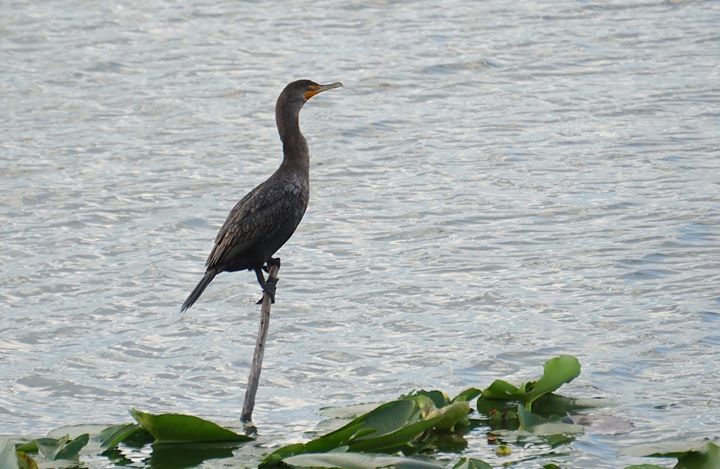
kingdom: Animalia
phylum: Chordata
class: Aves
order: Suliformes
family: Phalacrocoracidae
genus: Phalacrocorax
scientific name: Phalacrocorax auritus
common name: Double-crested cormorant
